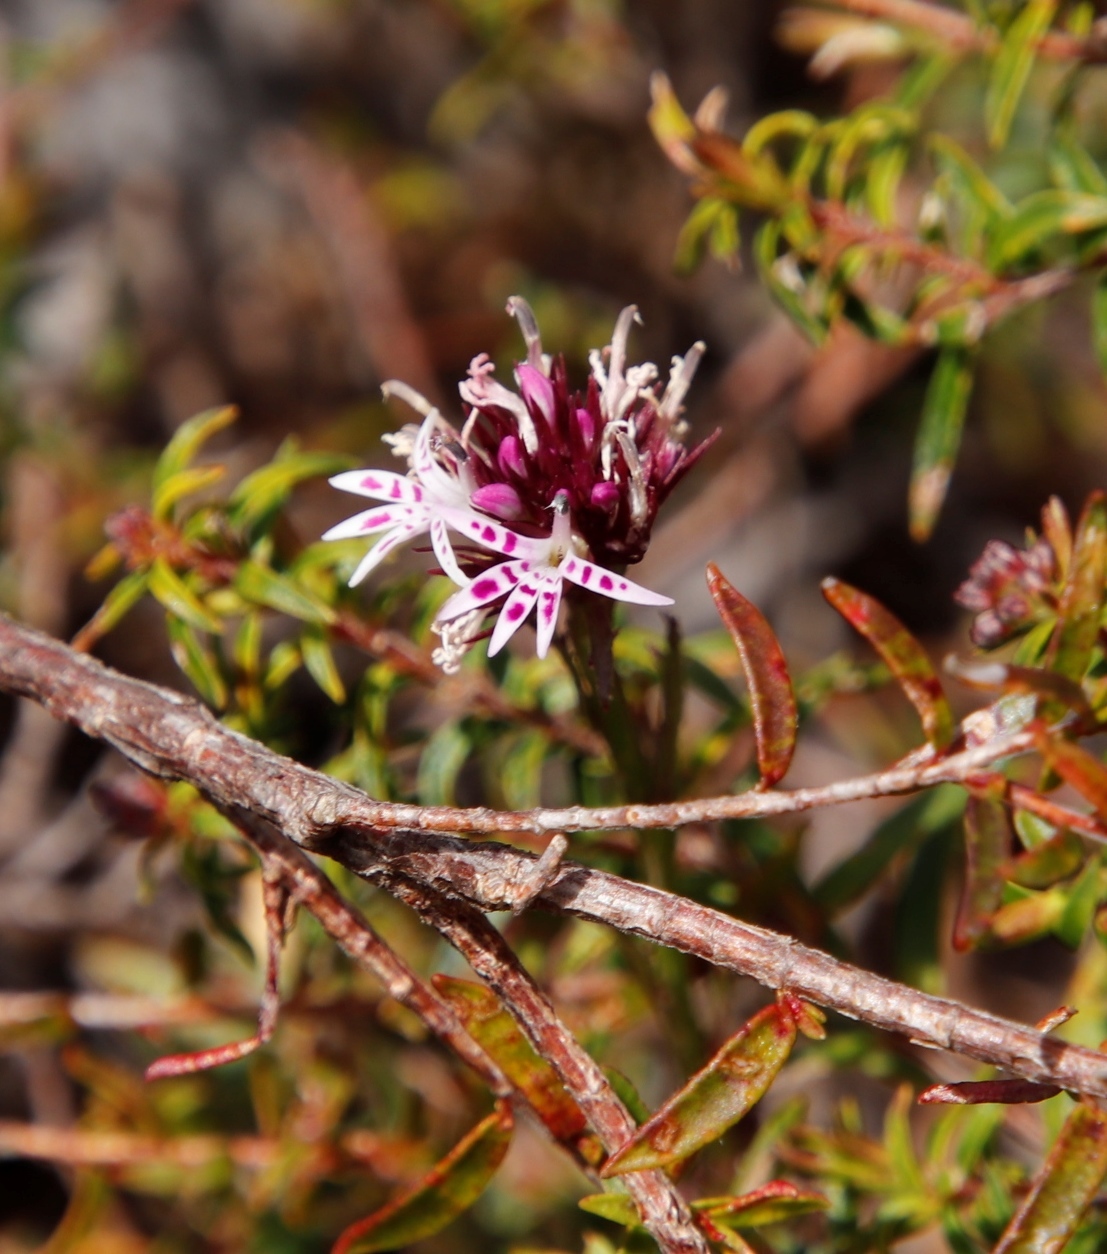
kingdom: Plantae
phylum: Tracheophyta
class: Magnoliopsida
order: Asterales
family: Campanulaceae
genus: Lobelia
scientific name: Lobelia jasionoides
